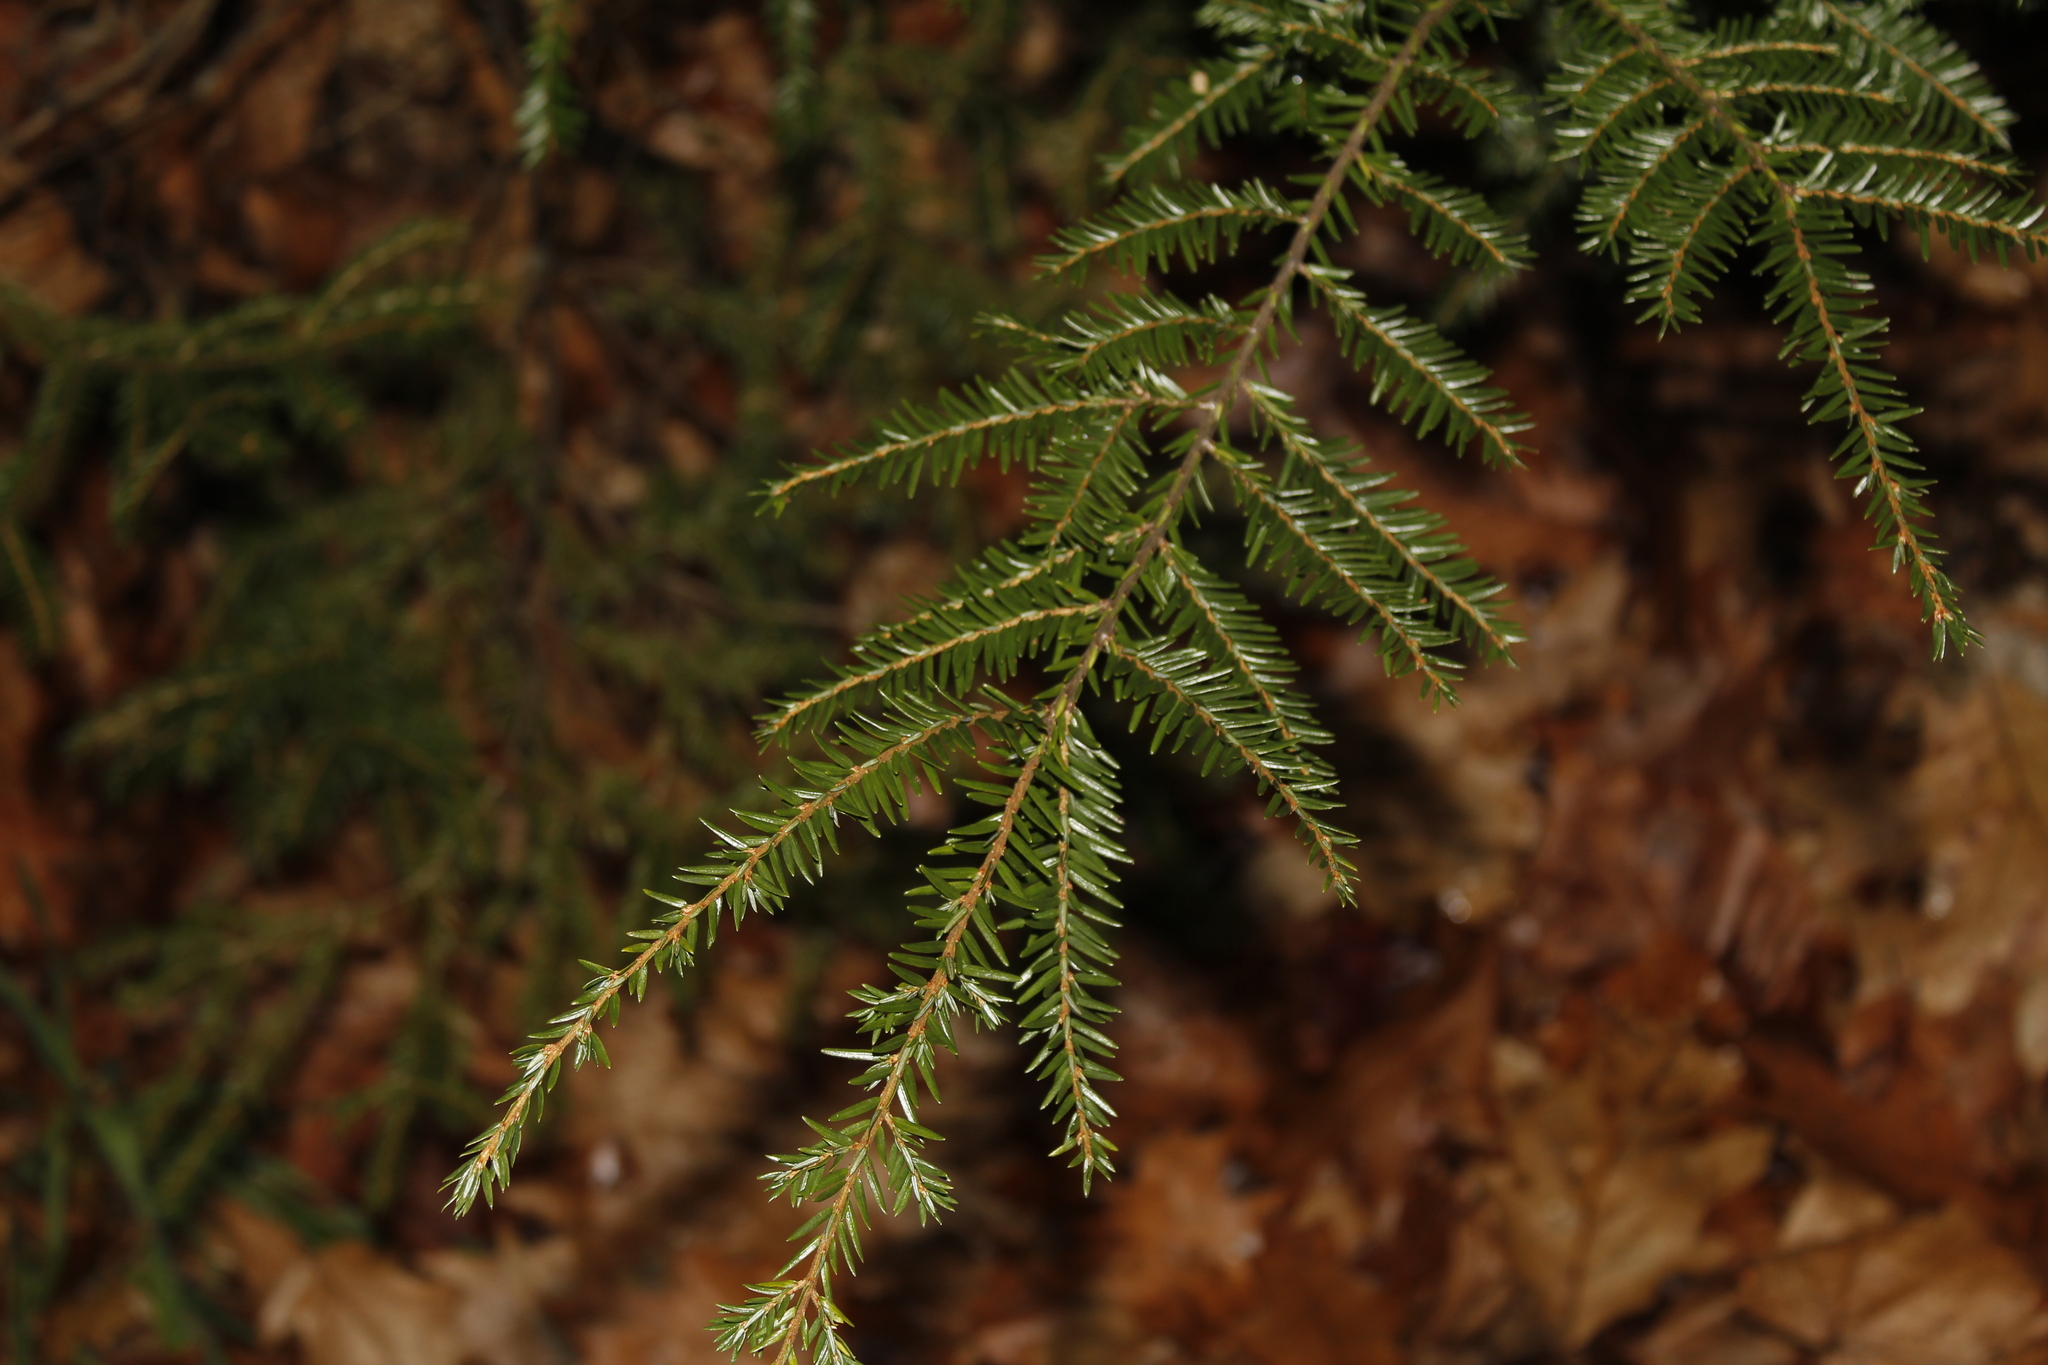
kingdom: Plantae
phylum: Tracheophyta
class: Pinopsida
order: Pinales
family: Pinaceae
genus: Tsuga
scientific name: Tsuga canadensis
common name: Eastern hemlock
